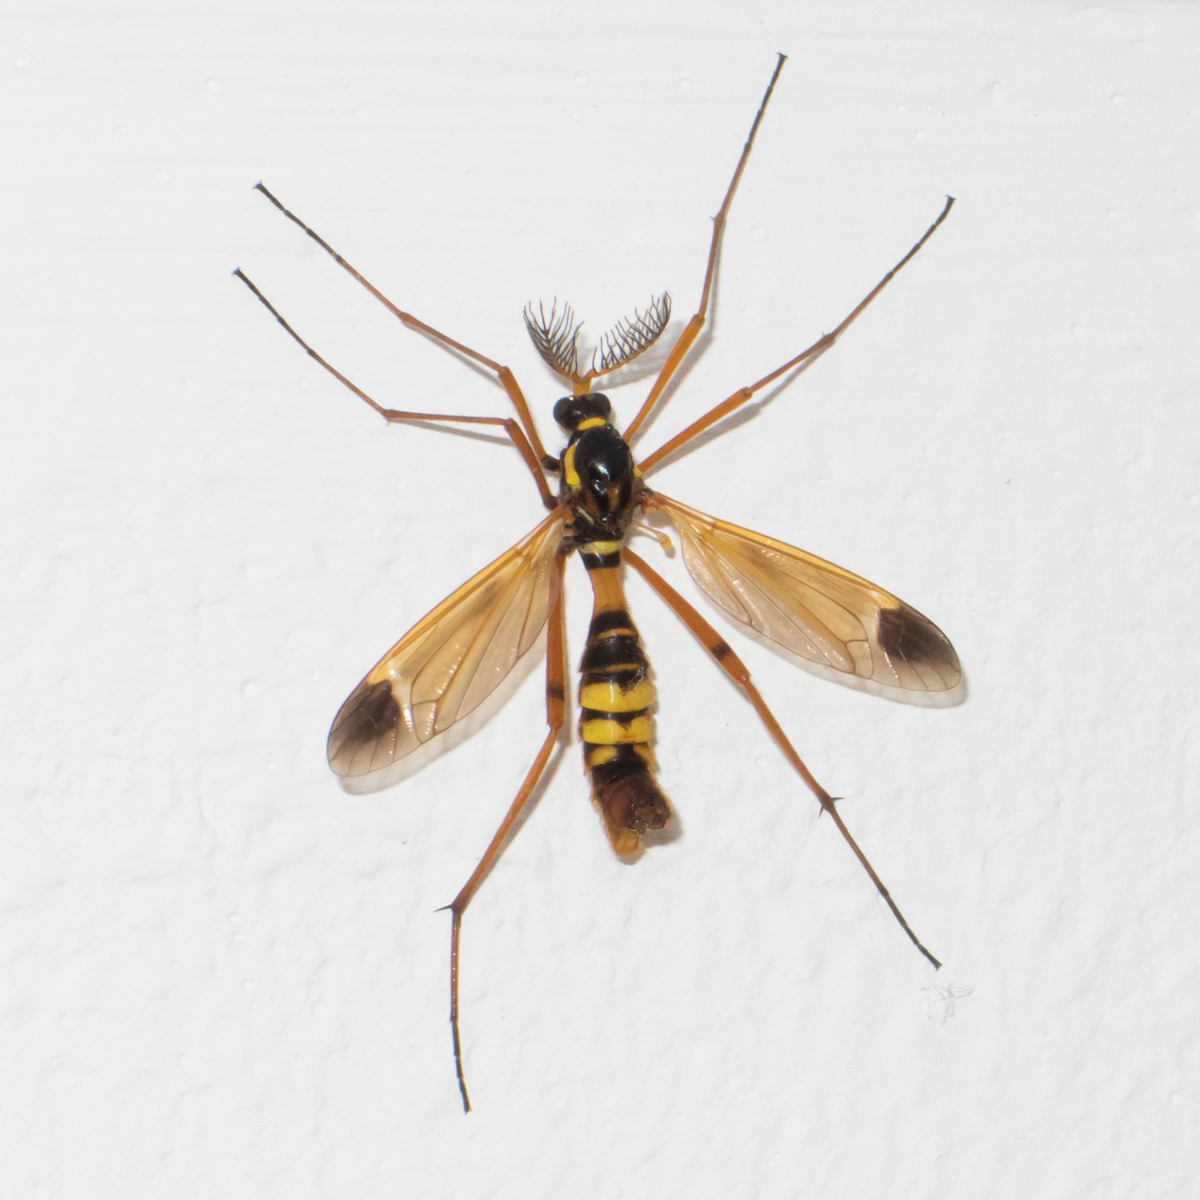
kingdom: Animalia
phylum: Arthropoda
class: Insecta
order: Diptera
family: Tipulidae
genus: Ctenophora
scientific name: Ctenophora ornata
